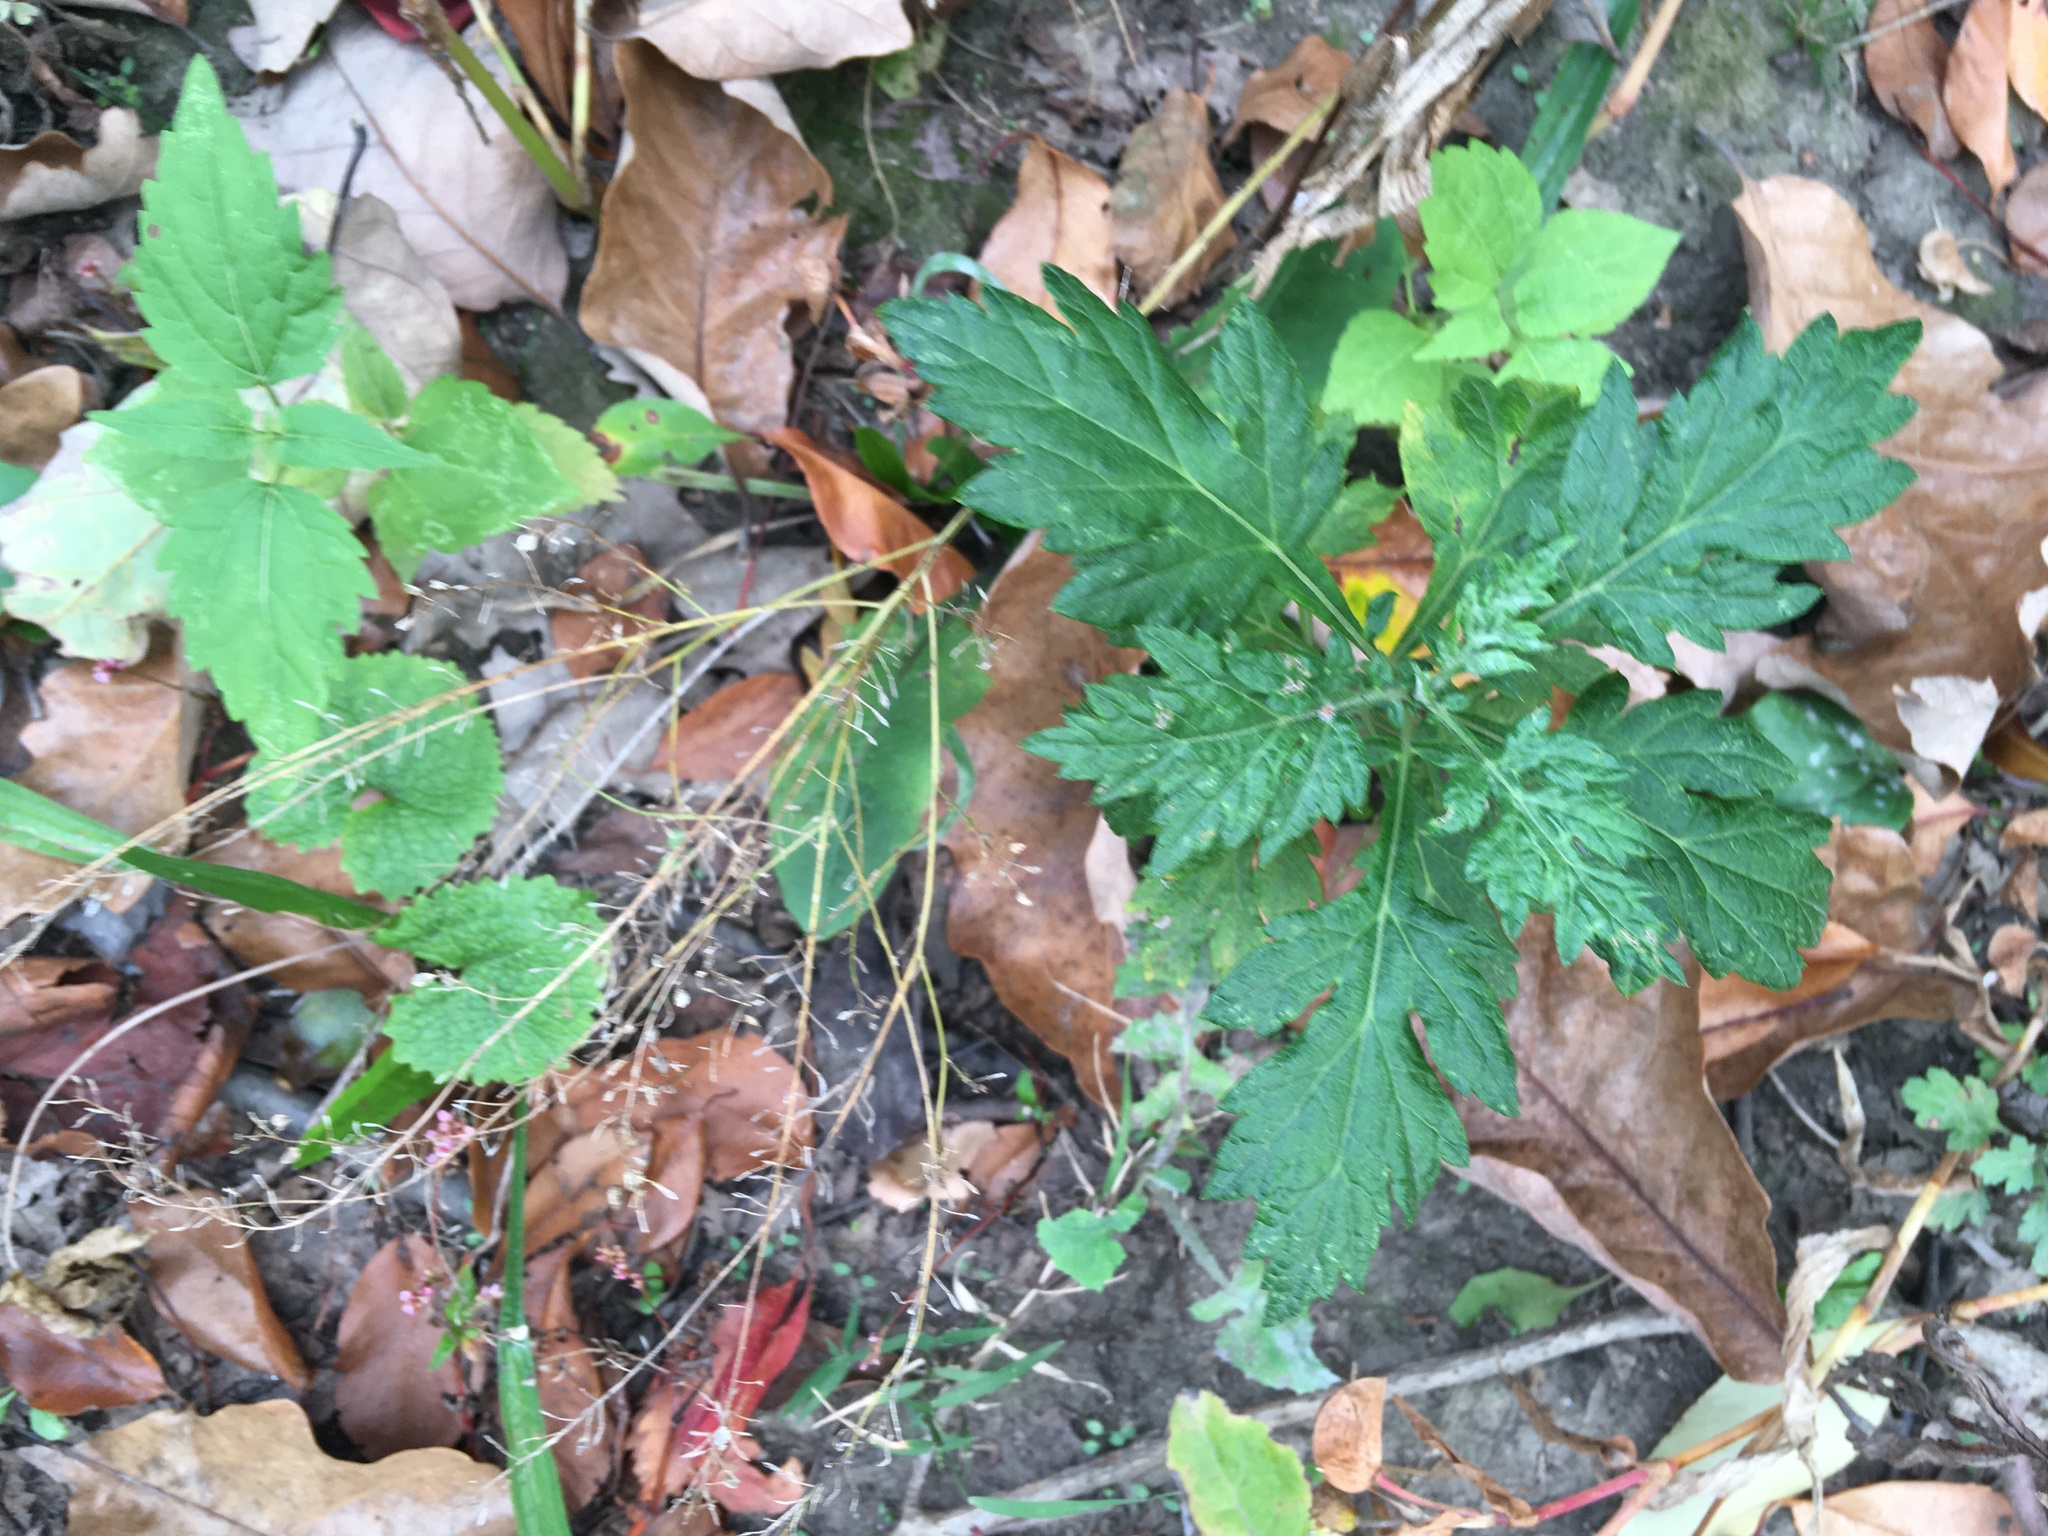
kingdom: Plantae
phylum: Tracheophyta
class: Magnoliopsida
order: Asterales
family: Asteraceae
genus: Artemisia
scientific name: Artemisia vulgaris
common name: Mugwort
